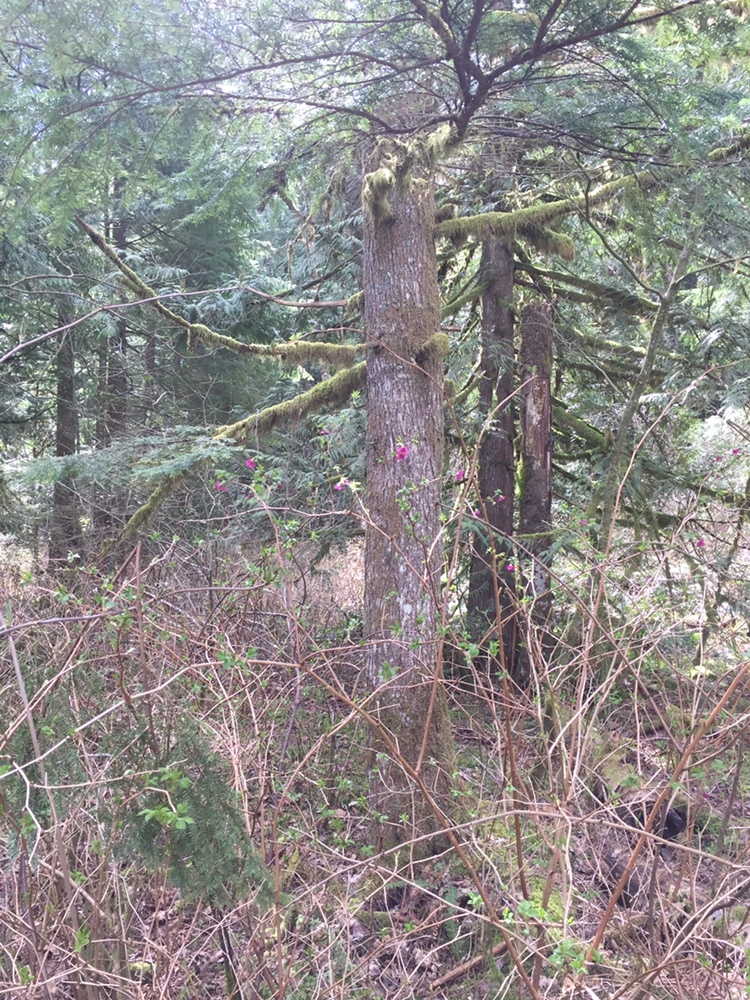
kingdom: Plantae
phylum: Tracheophyta
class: Magnoliopsida
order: Rosales
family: Rosaceae
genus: Rubus
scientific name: Rubus spectabilis
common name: Salmonberry
